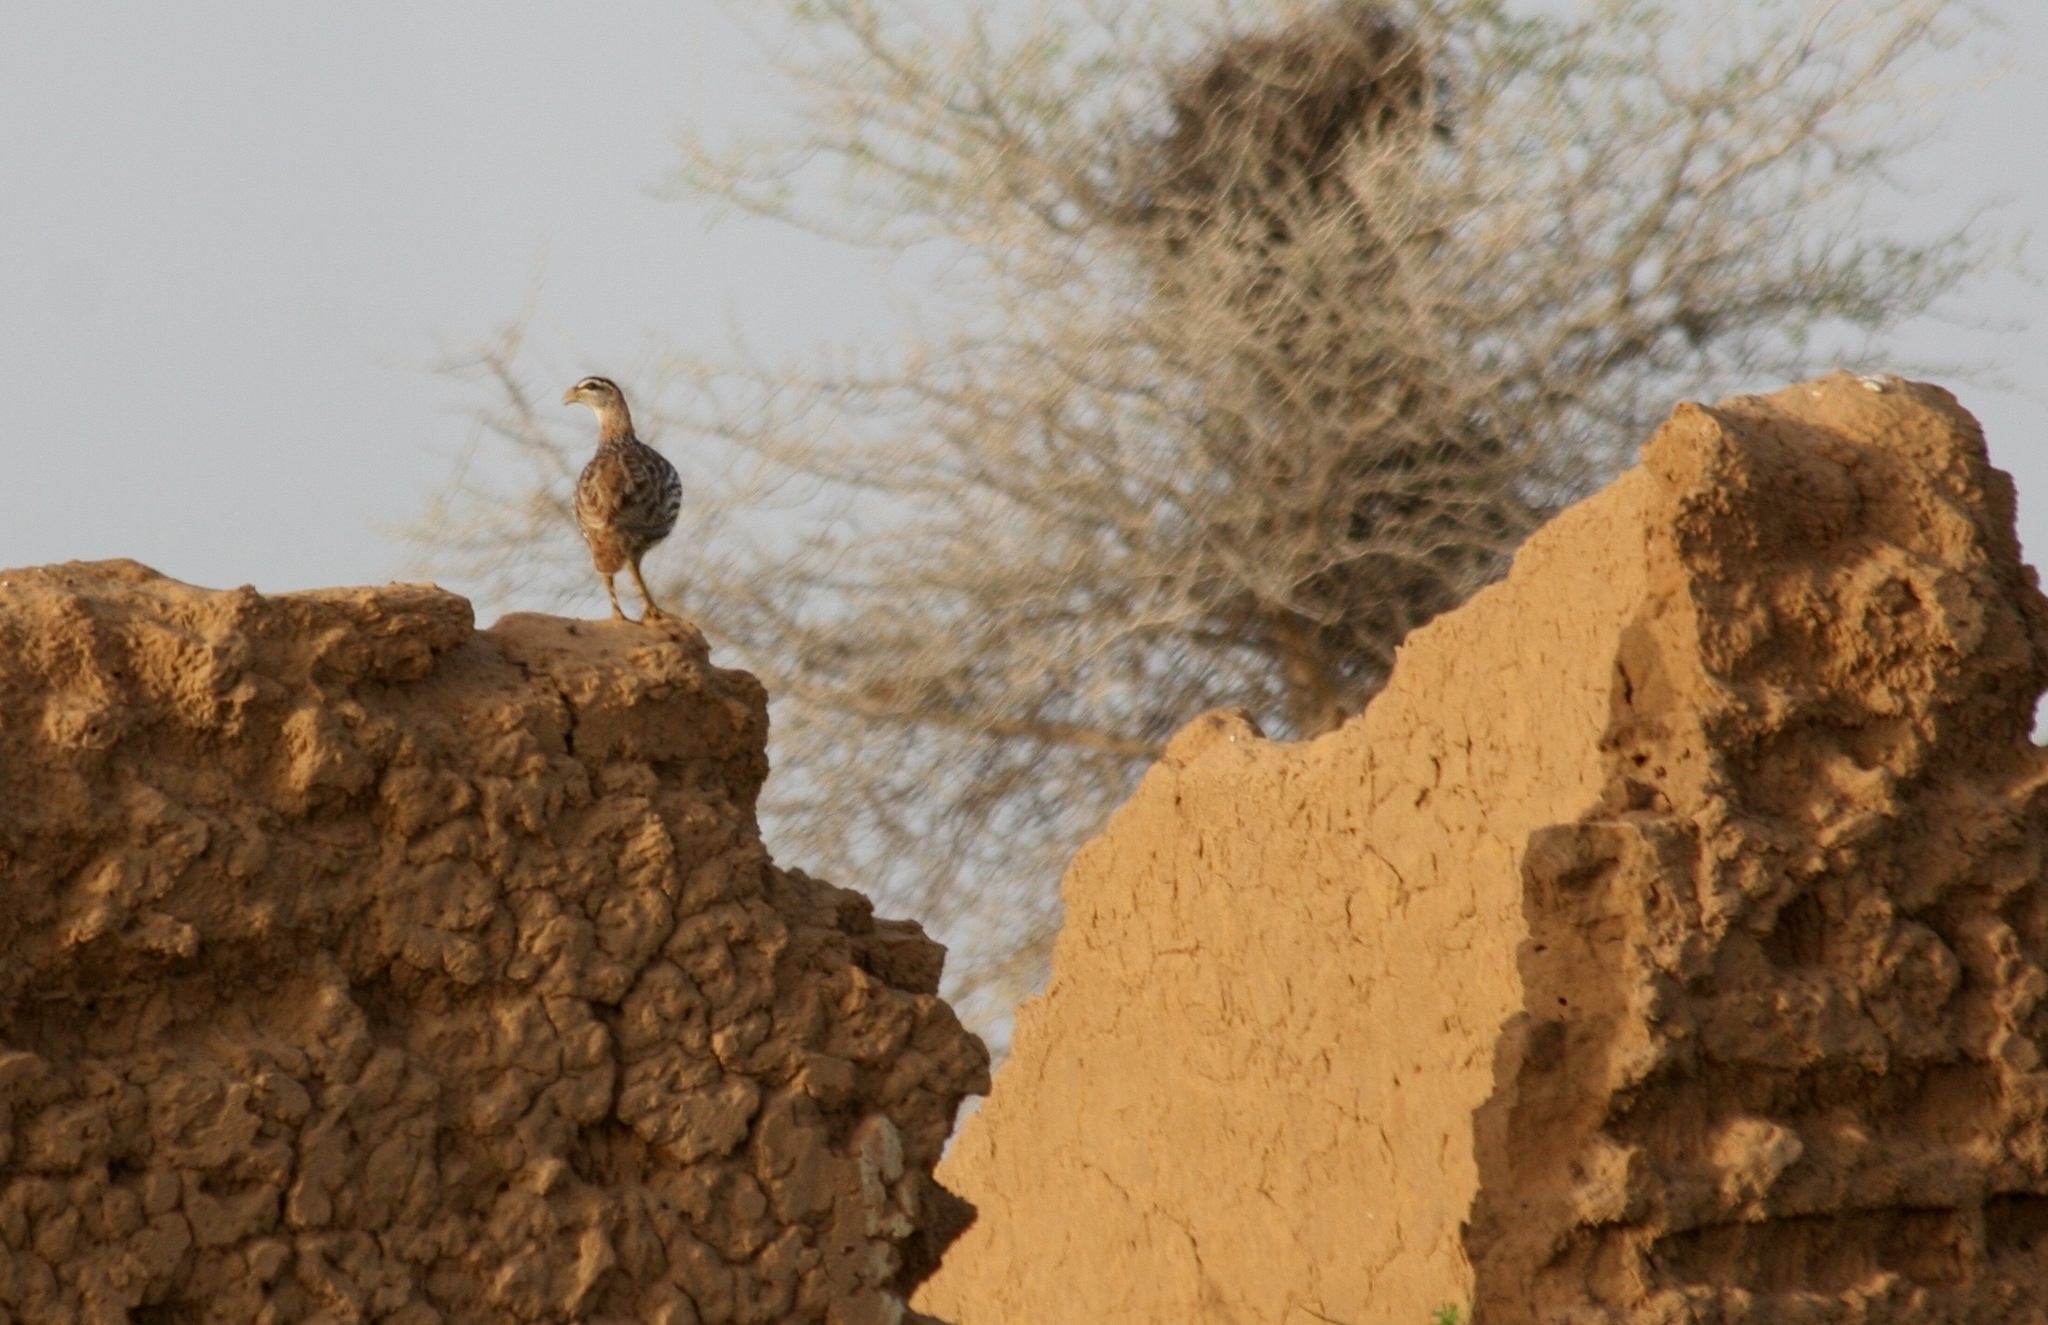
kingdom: Animalia
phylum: Chordata
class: Aves
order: Galliformes
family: Phasianidae
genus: Pternistis
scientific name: Pternistis bicalcaratus
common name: Double-spurred francolin
